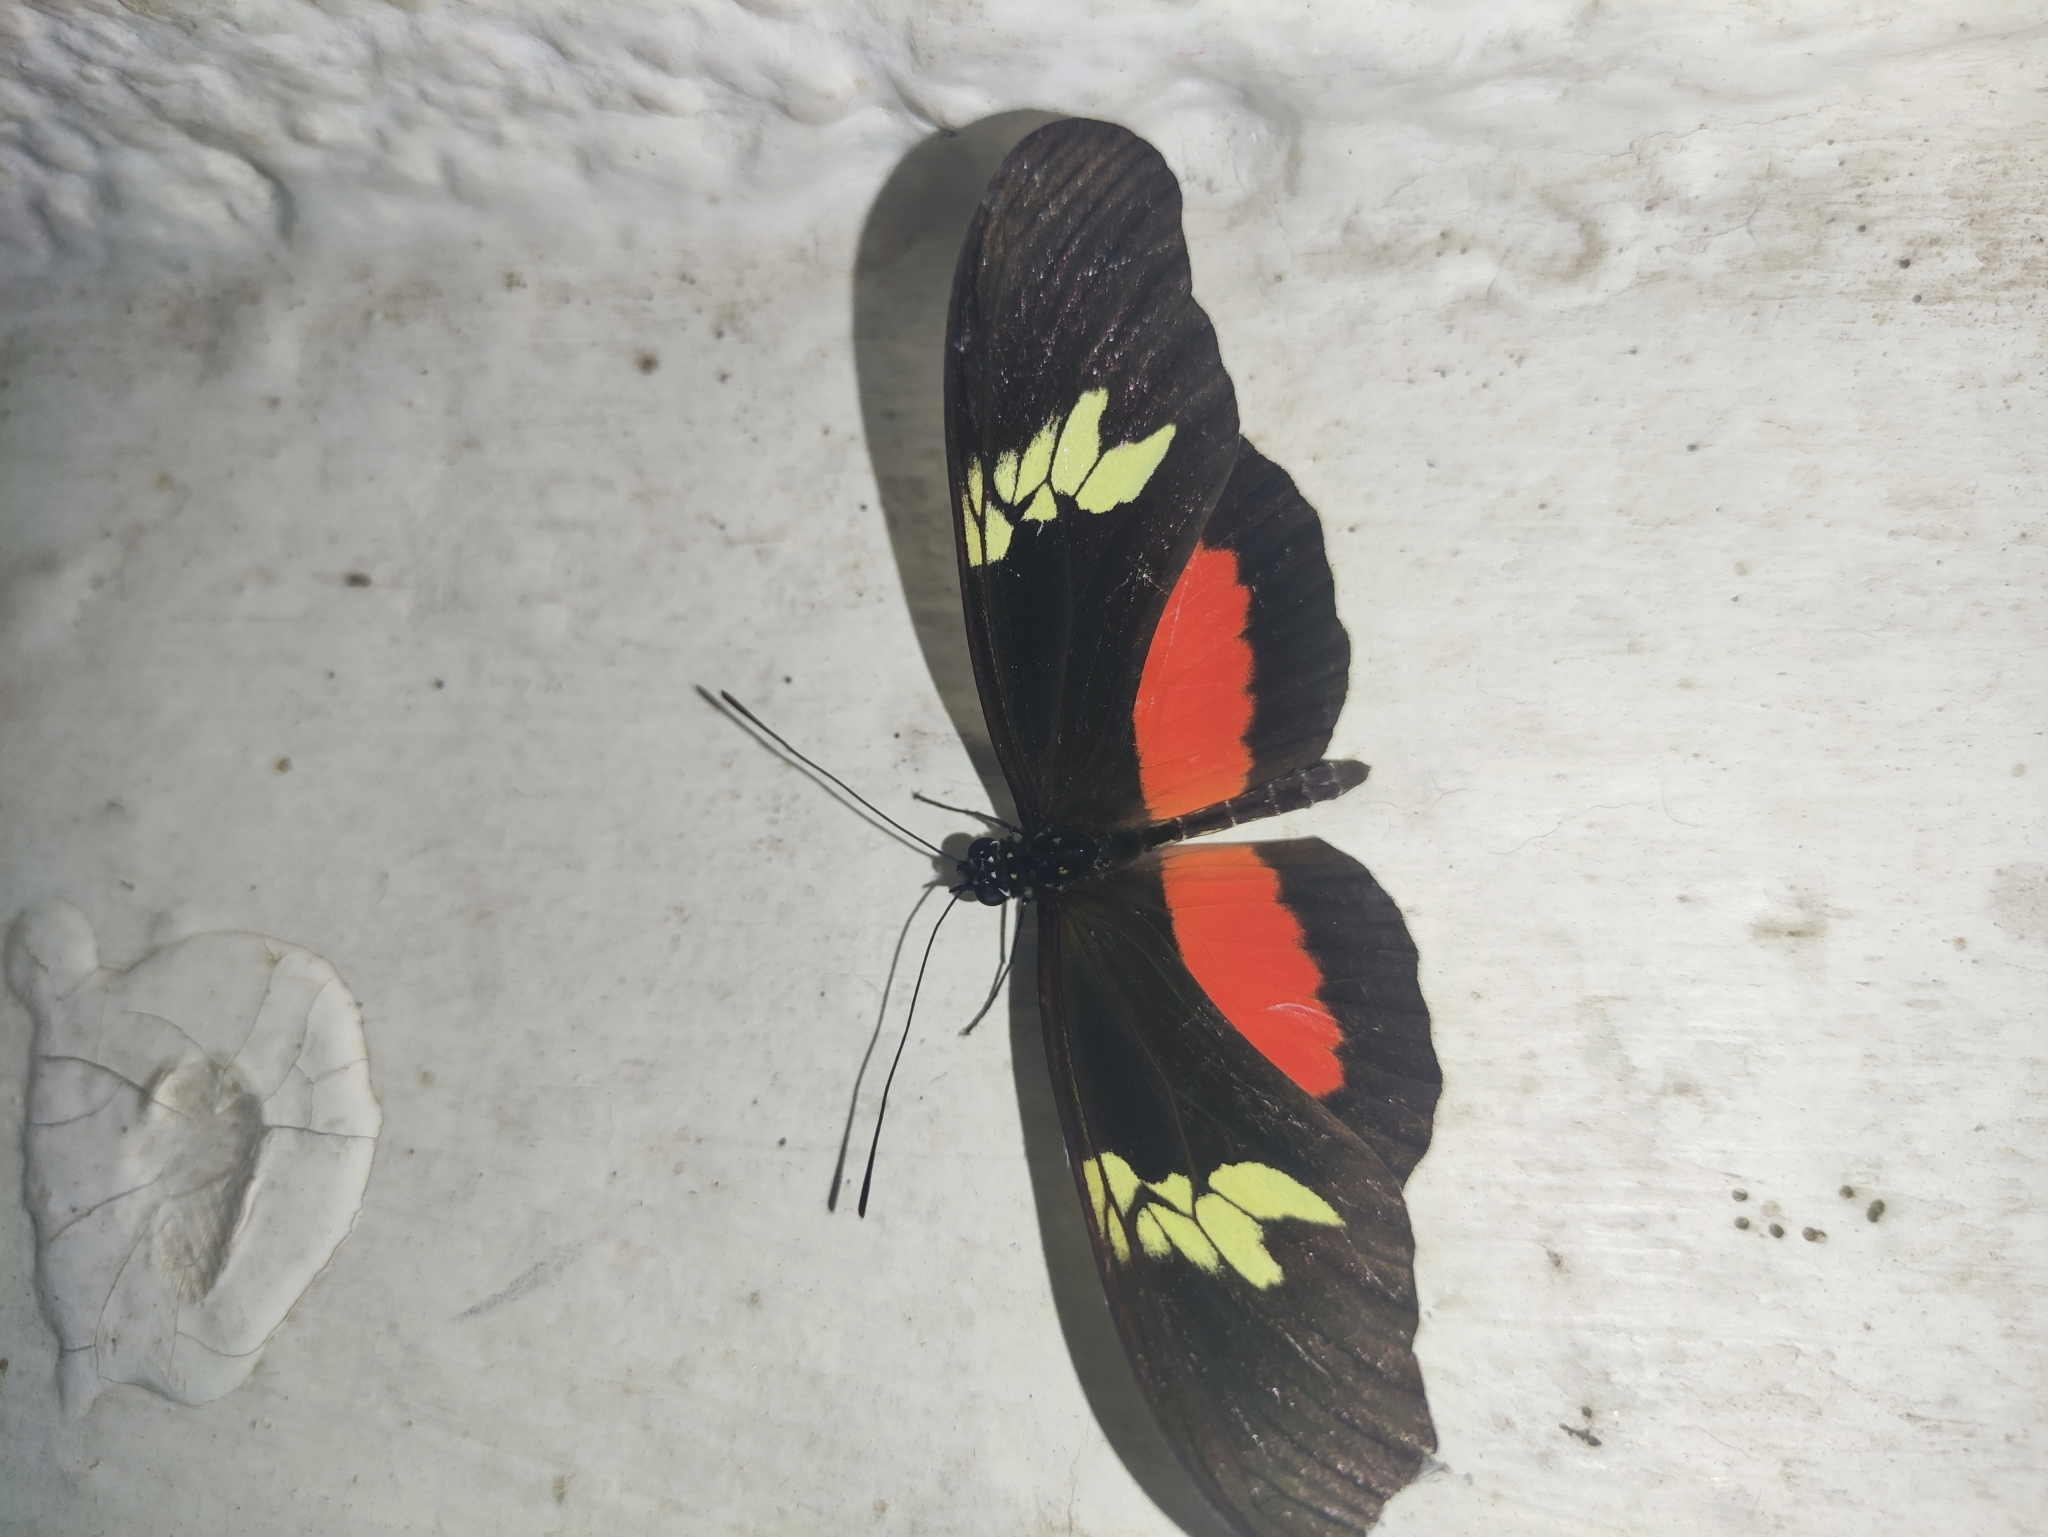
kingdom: Animalia
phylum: Arthropoda
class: Insecta
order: Lepidoptera
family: Nymphalidae
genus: Heliconius
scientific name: Heliconius hortense
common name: Mexican longwing
